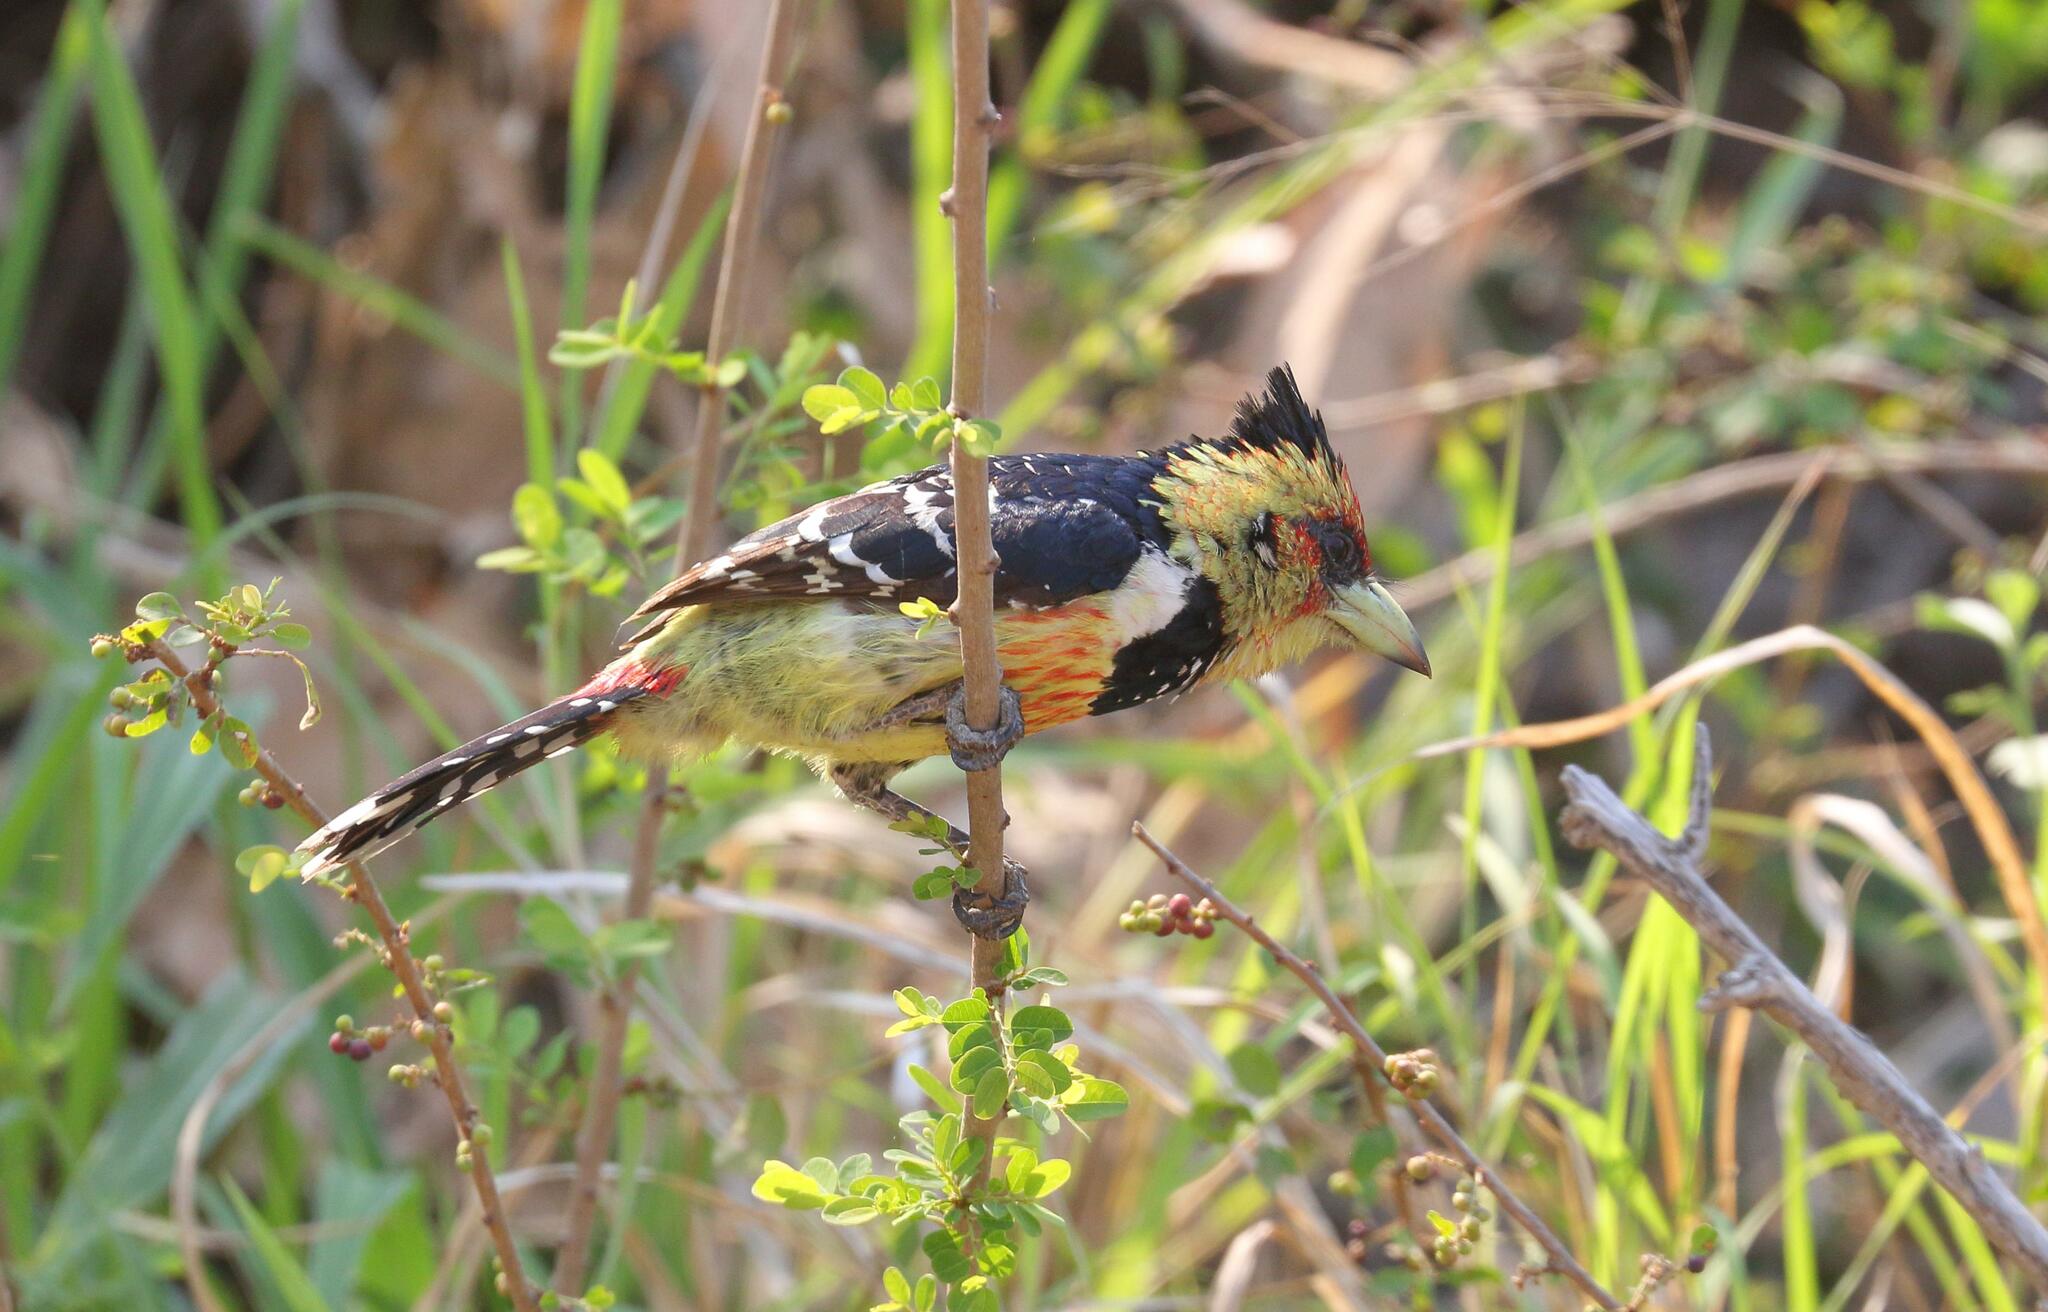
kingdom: Animalia
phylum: Chordata
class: Aves
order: Piciformes
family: Lybiidae
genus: Trachyphonus
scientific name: Trachyphonus vaillantii
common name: Crested barbet
